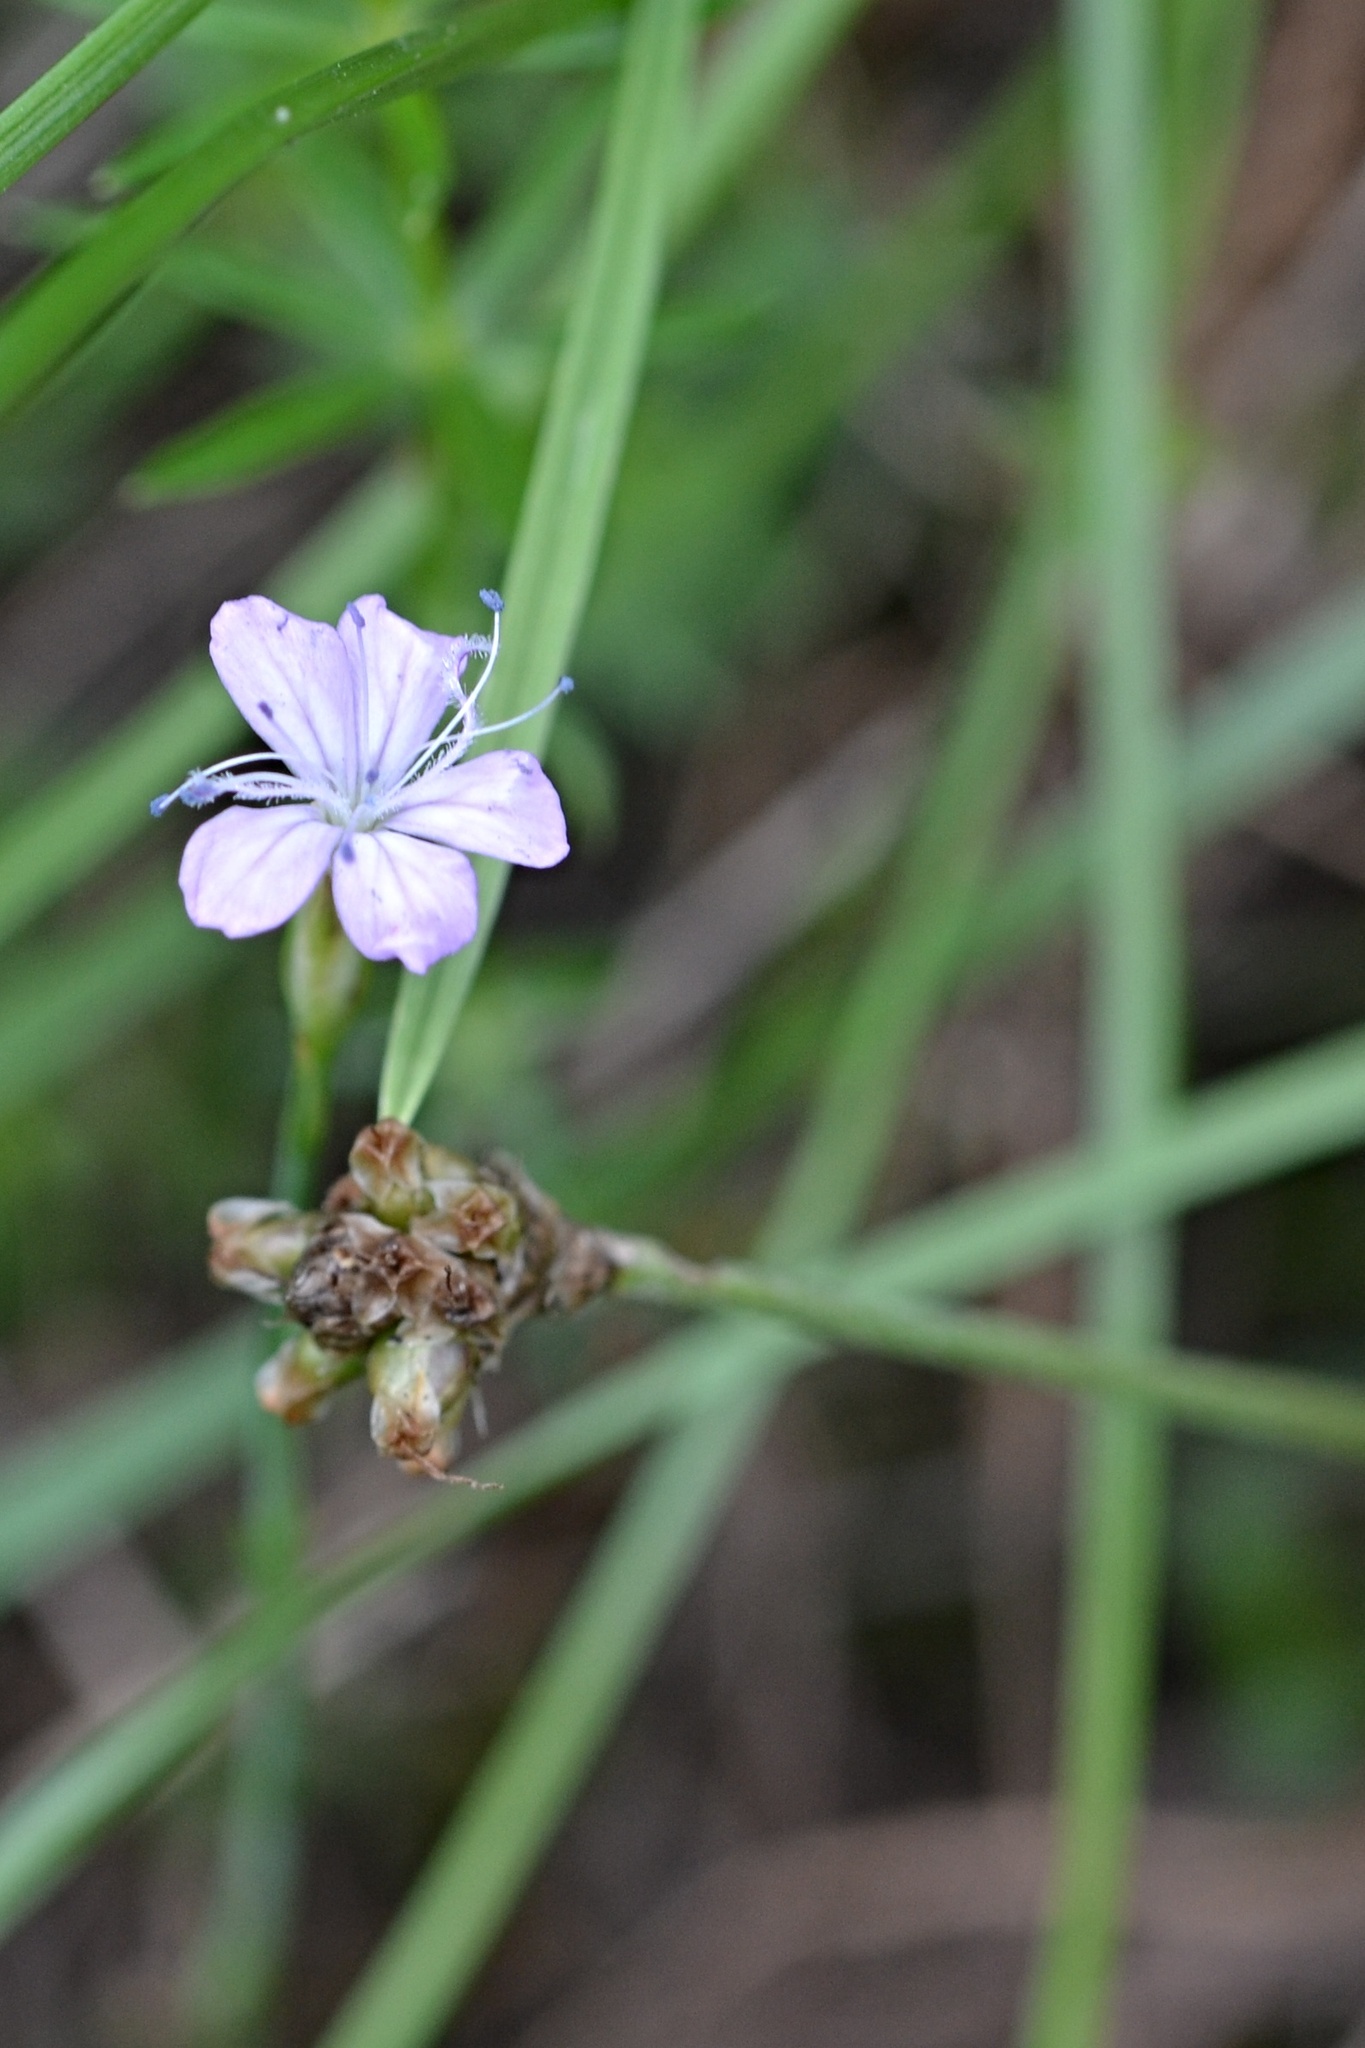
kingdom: Plantae
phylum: Tracheophyta
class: Magnoliopsida
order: Caryophyllales
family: Caryophyllaceae
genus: Petrorhagia
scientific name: Petrorhagia prolifera
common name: Proliferous pink
